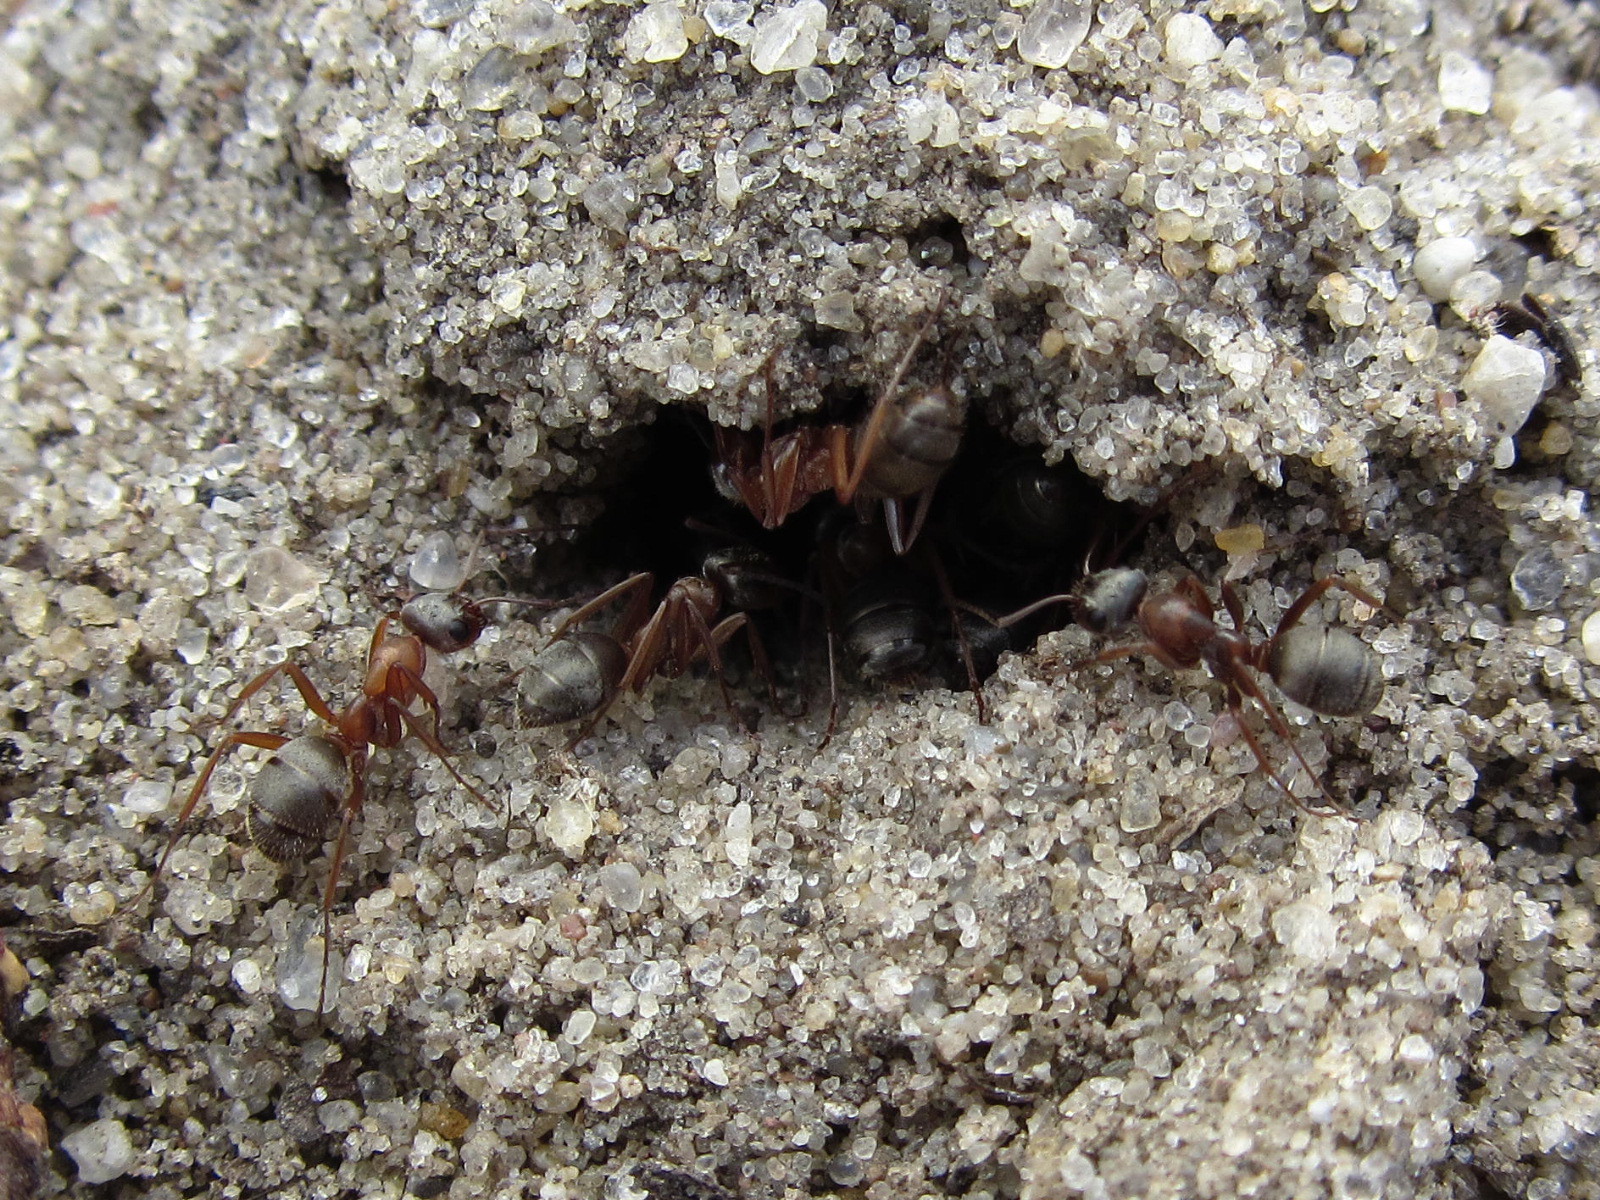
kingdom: Animalia
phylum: Arthropoda
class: Insecta
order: Hymenoptera
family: Formicidae
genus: Formica
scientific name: Formica cinerea
